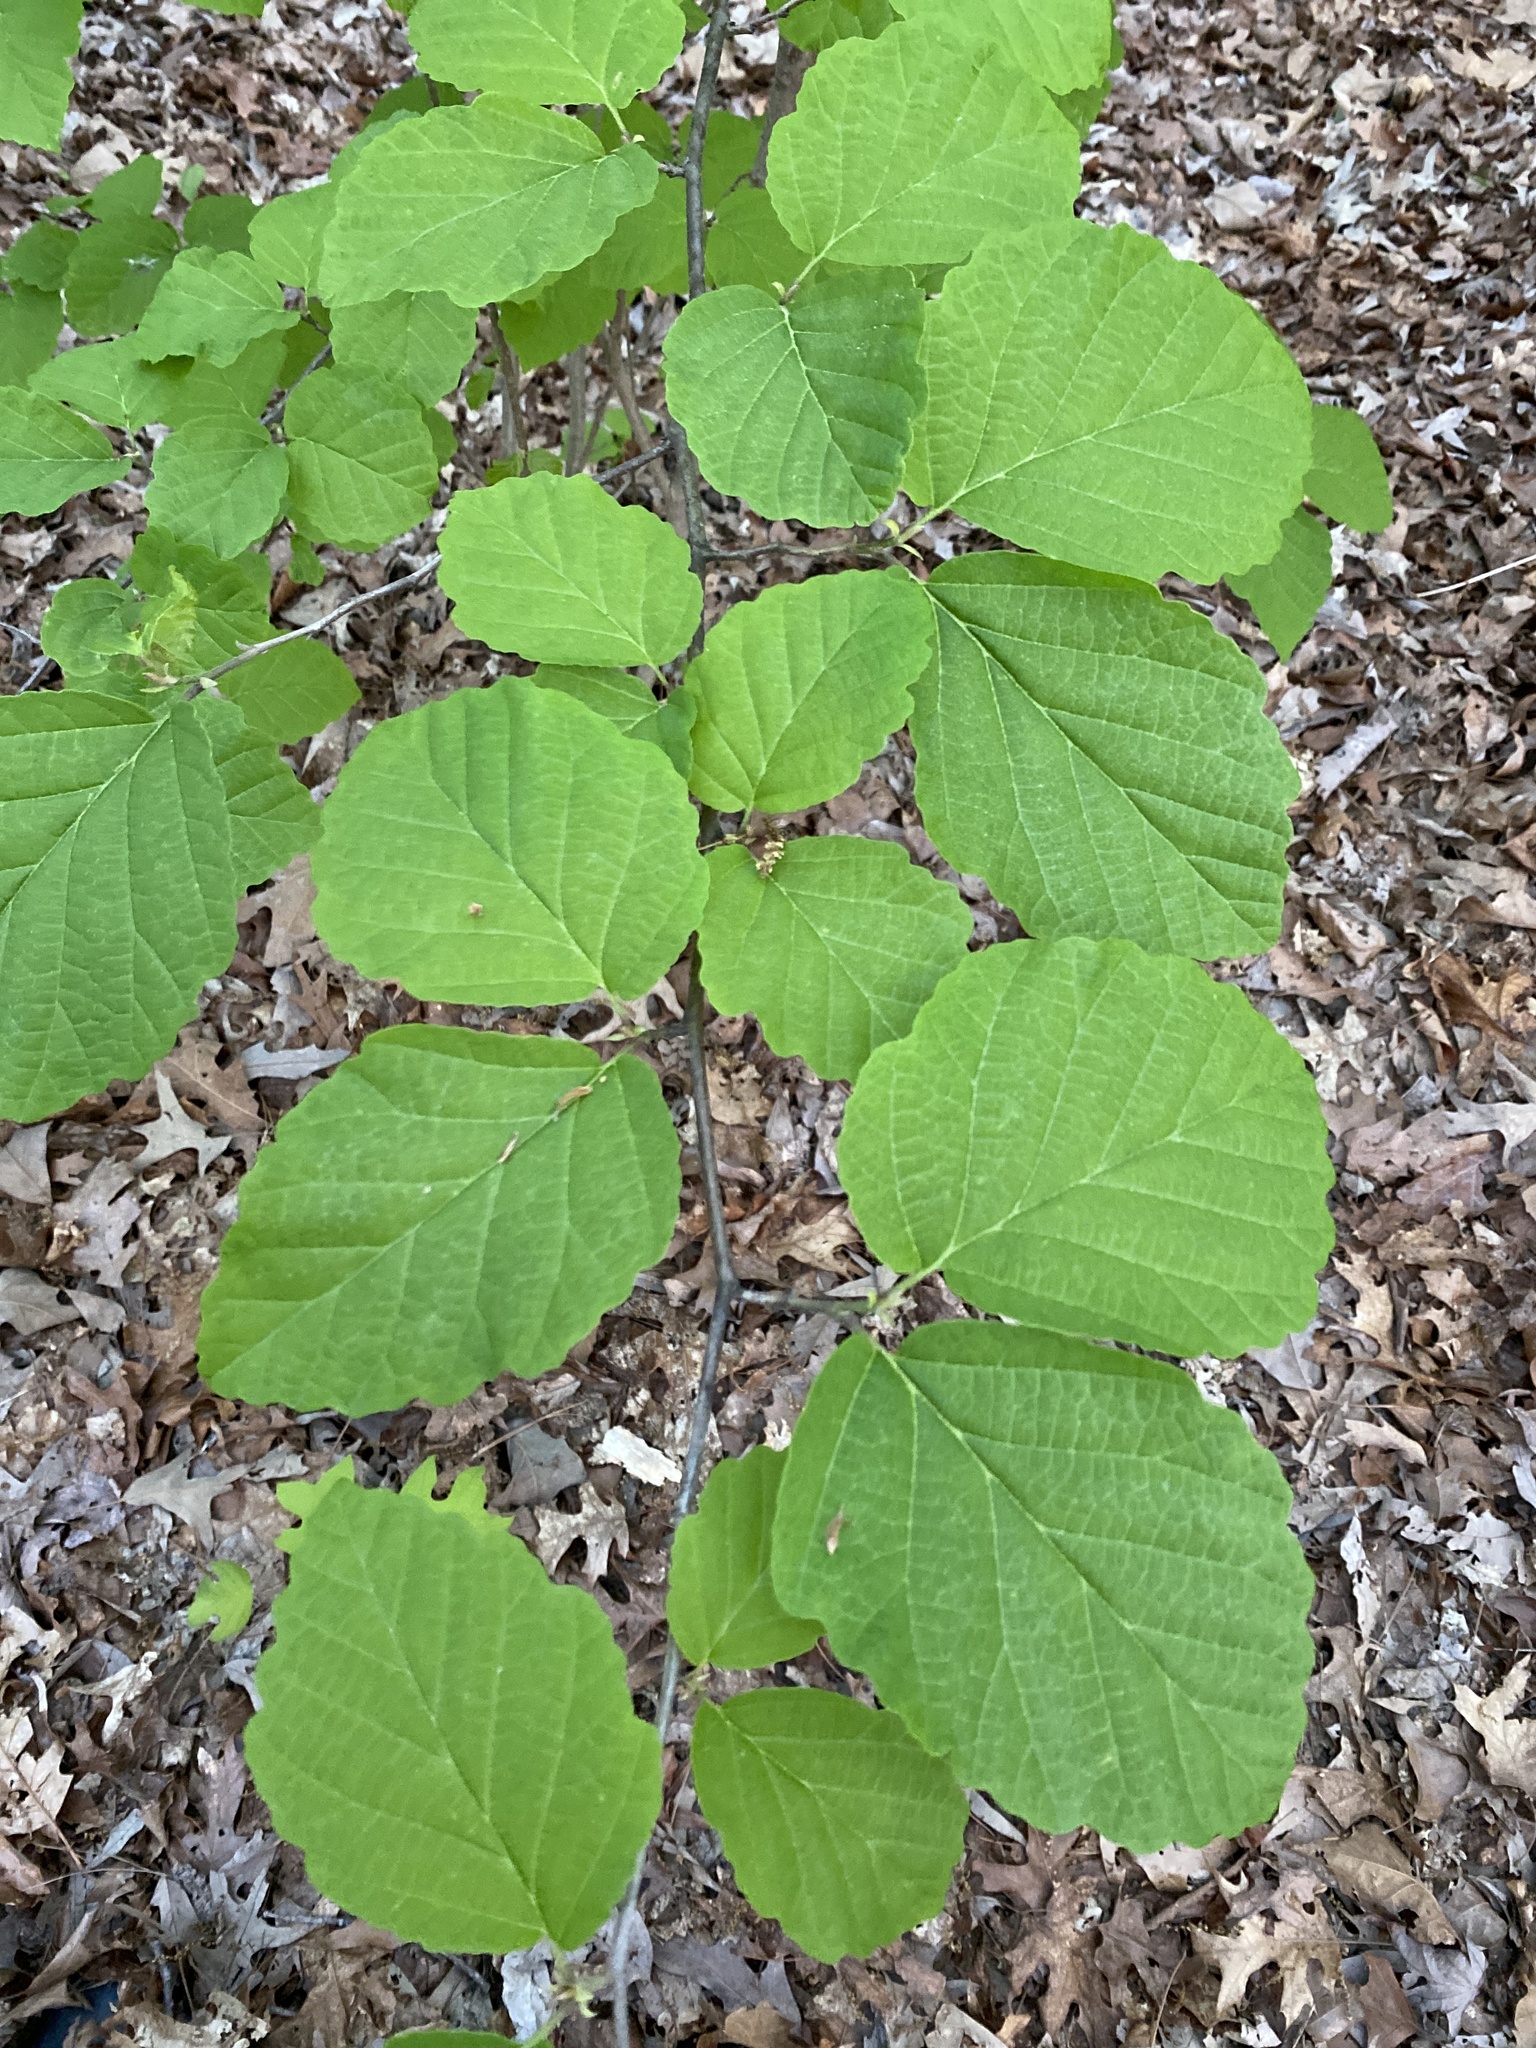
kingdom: Plantae
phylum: Tracheophyta
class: Magnoliopsida
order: Saxifragales
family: Hamamelidaceae
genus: Hamamelis
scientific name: Hamamelis virginiana
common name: Witch-hazel
